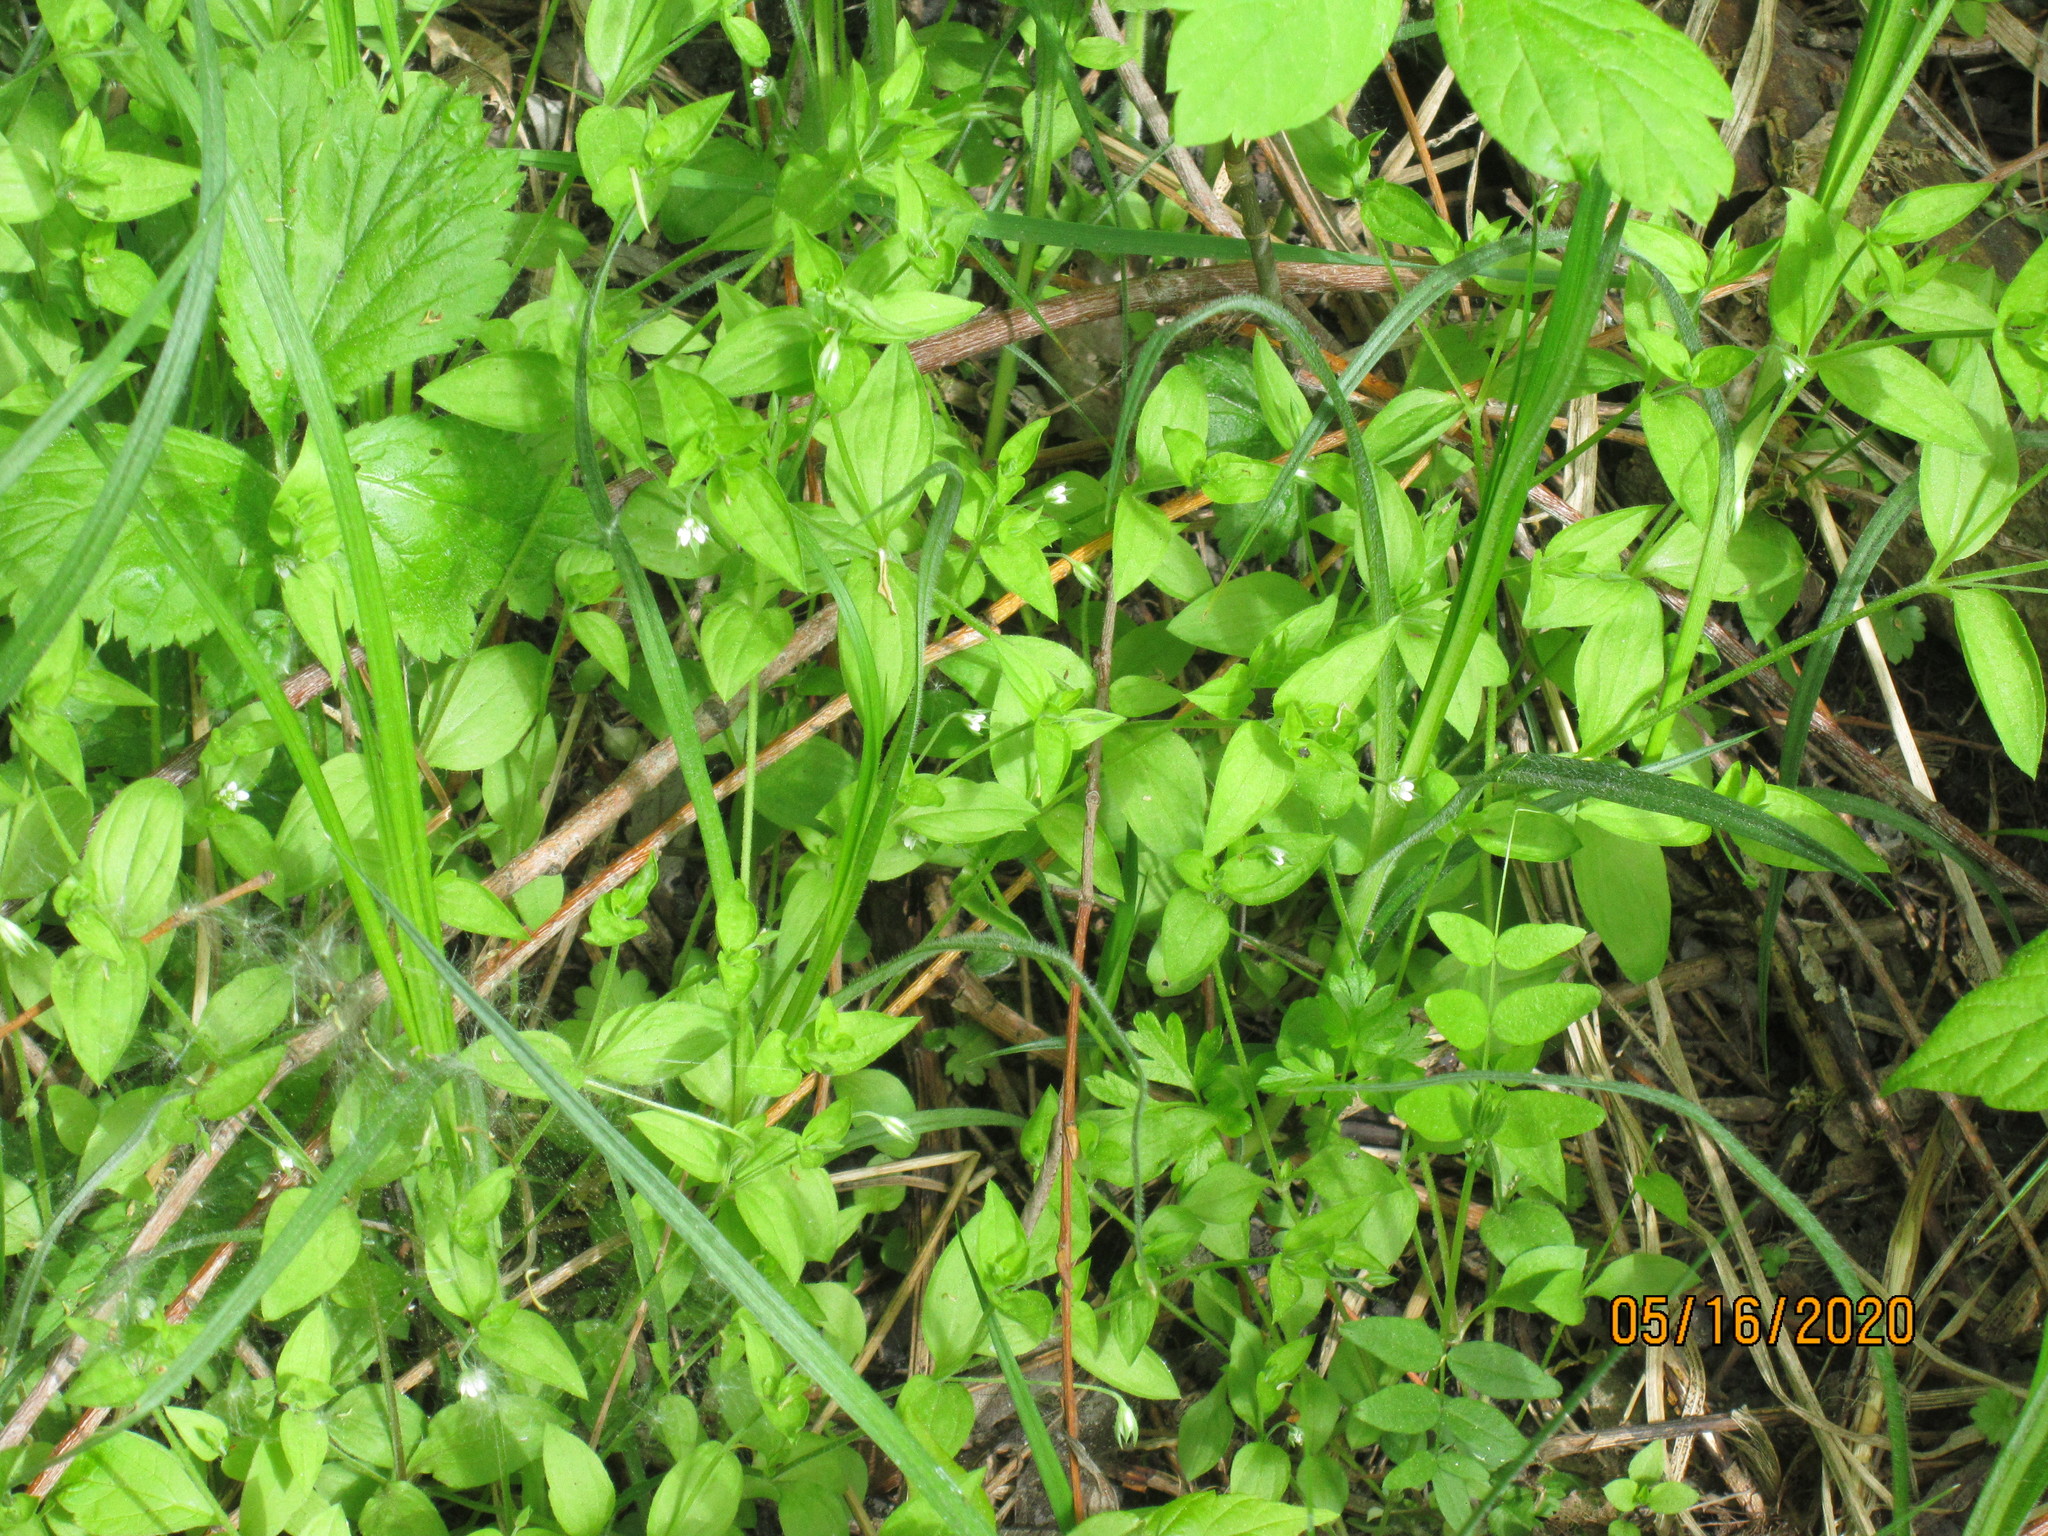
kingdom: Plantae
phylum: Tracheophyta
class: Magnoliopsida
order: Caryophyllales
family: Caryophyllaceae
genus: Moehringia
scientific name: Moehringia trinervia
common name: Three-nerved sandwort
